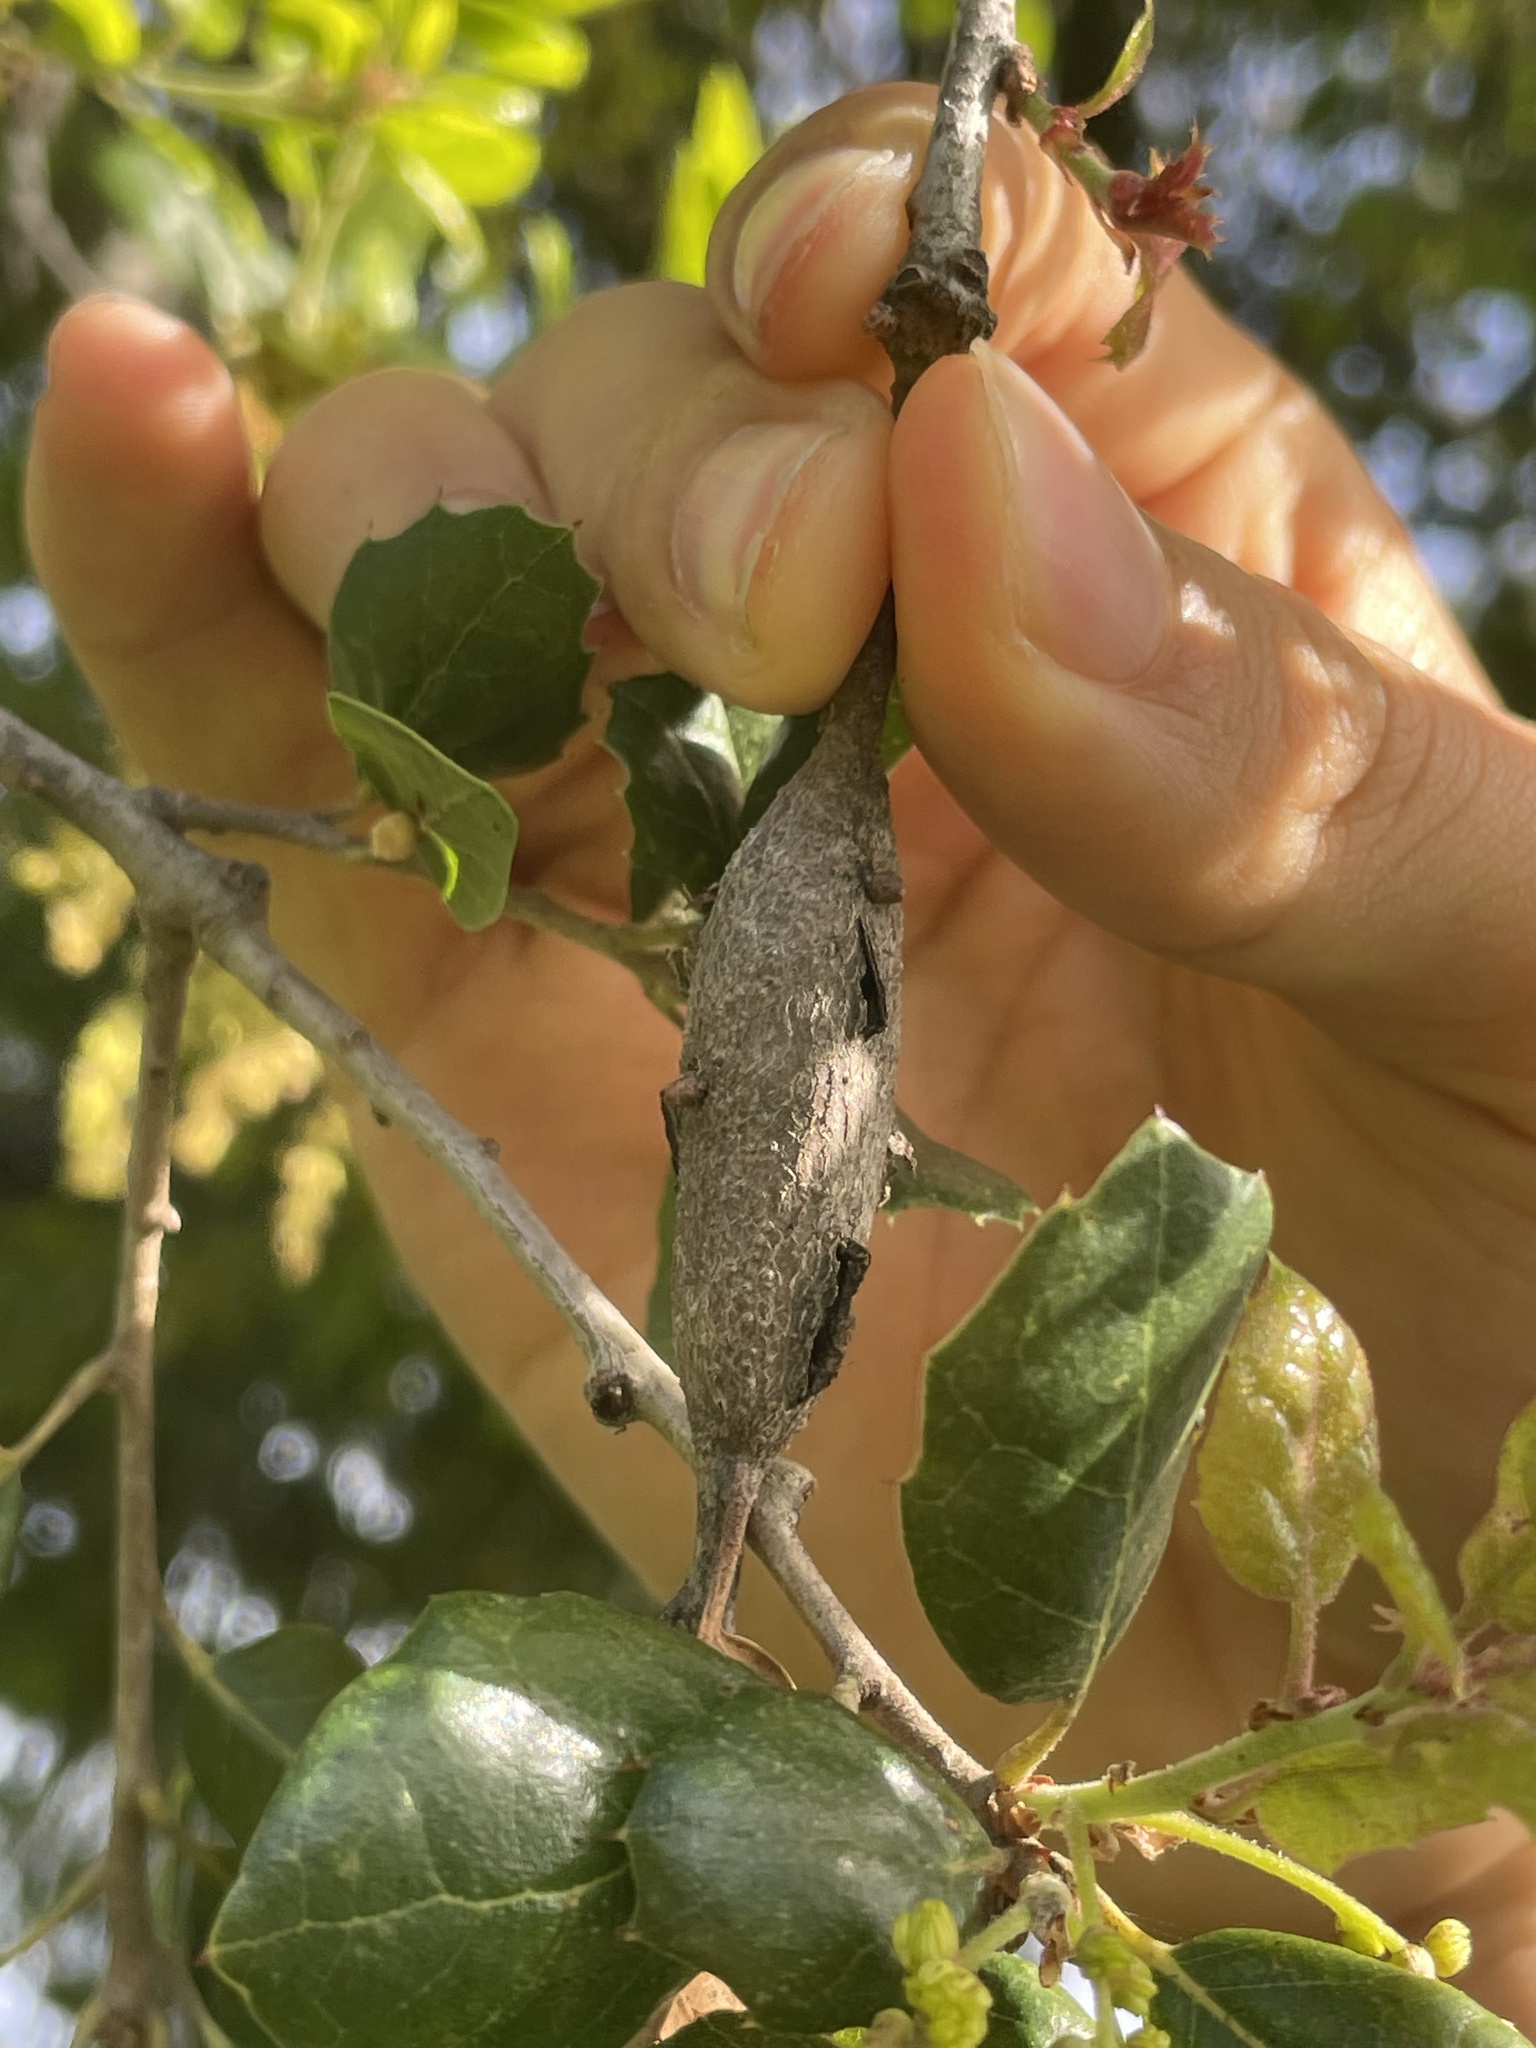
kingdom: Animalia
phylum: Arthropoda
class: Insecta
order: Hymenoptera
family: Cynipidae
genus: Callirhytis
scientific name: Callirhytis
